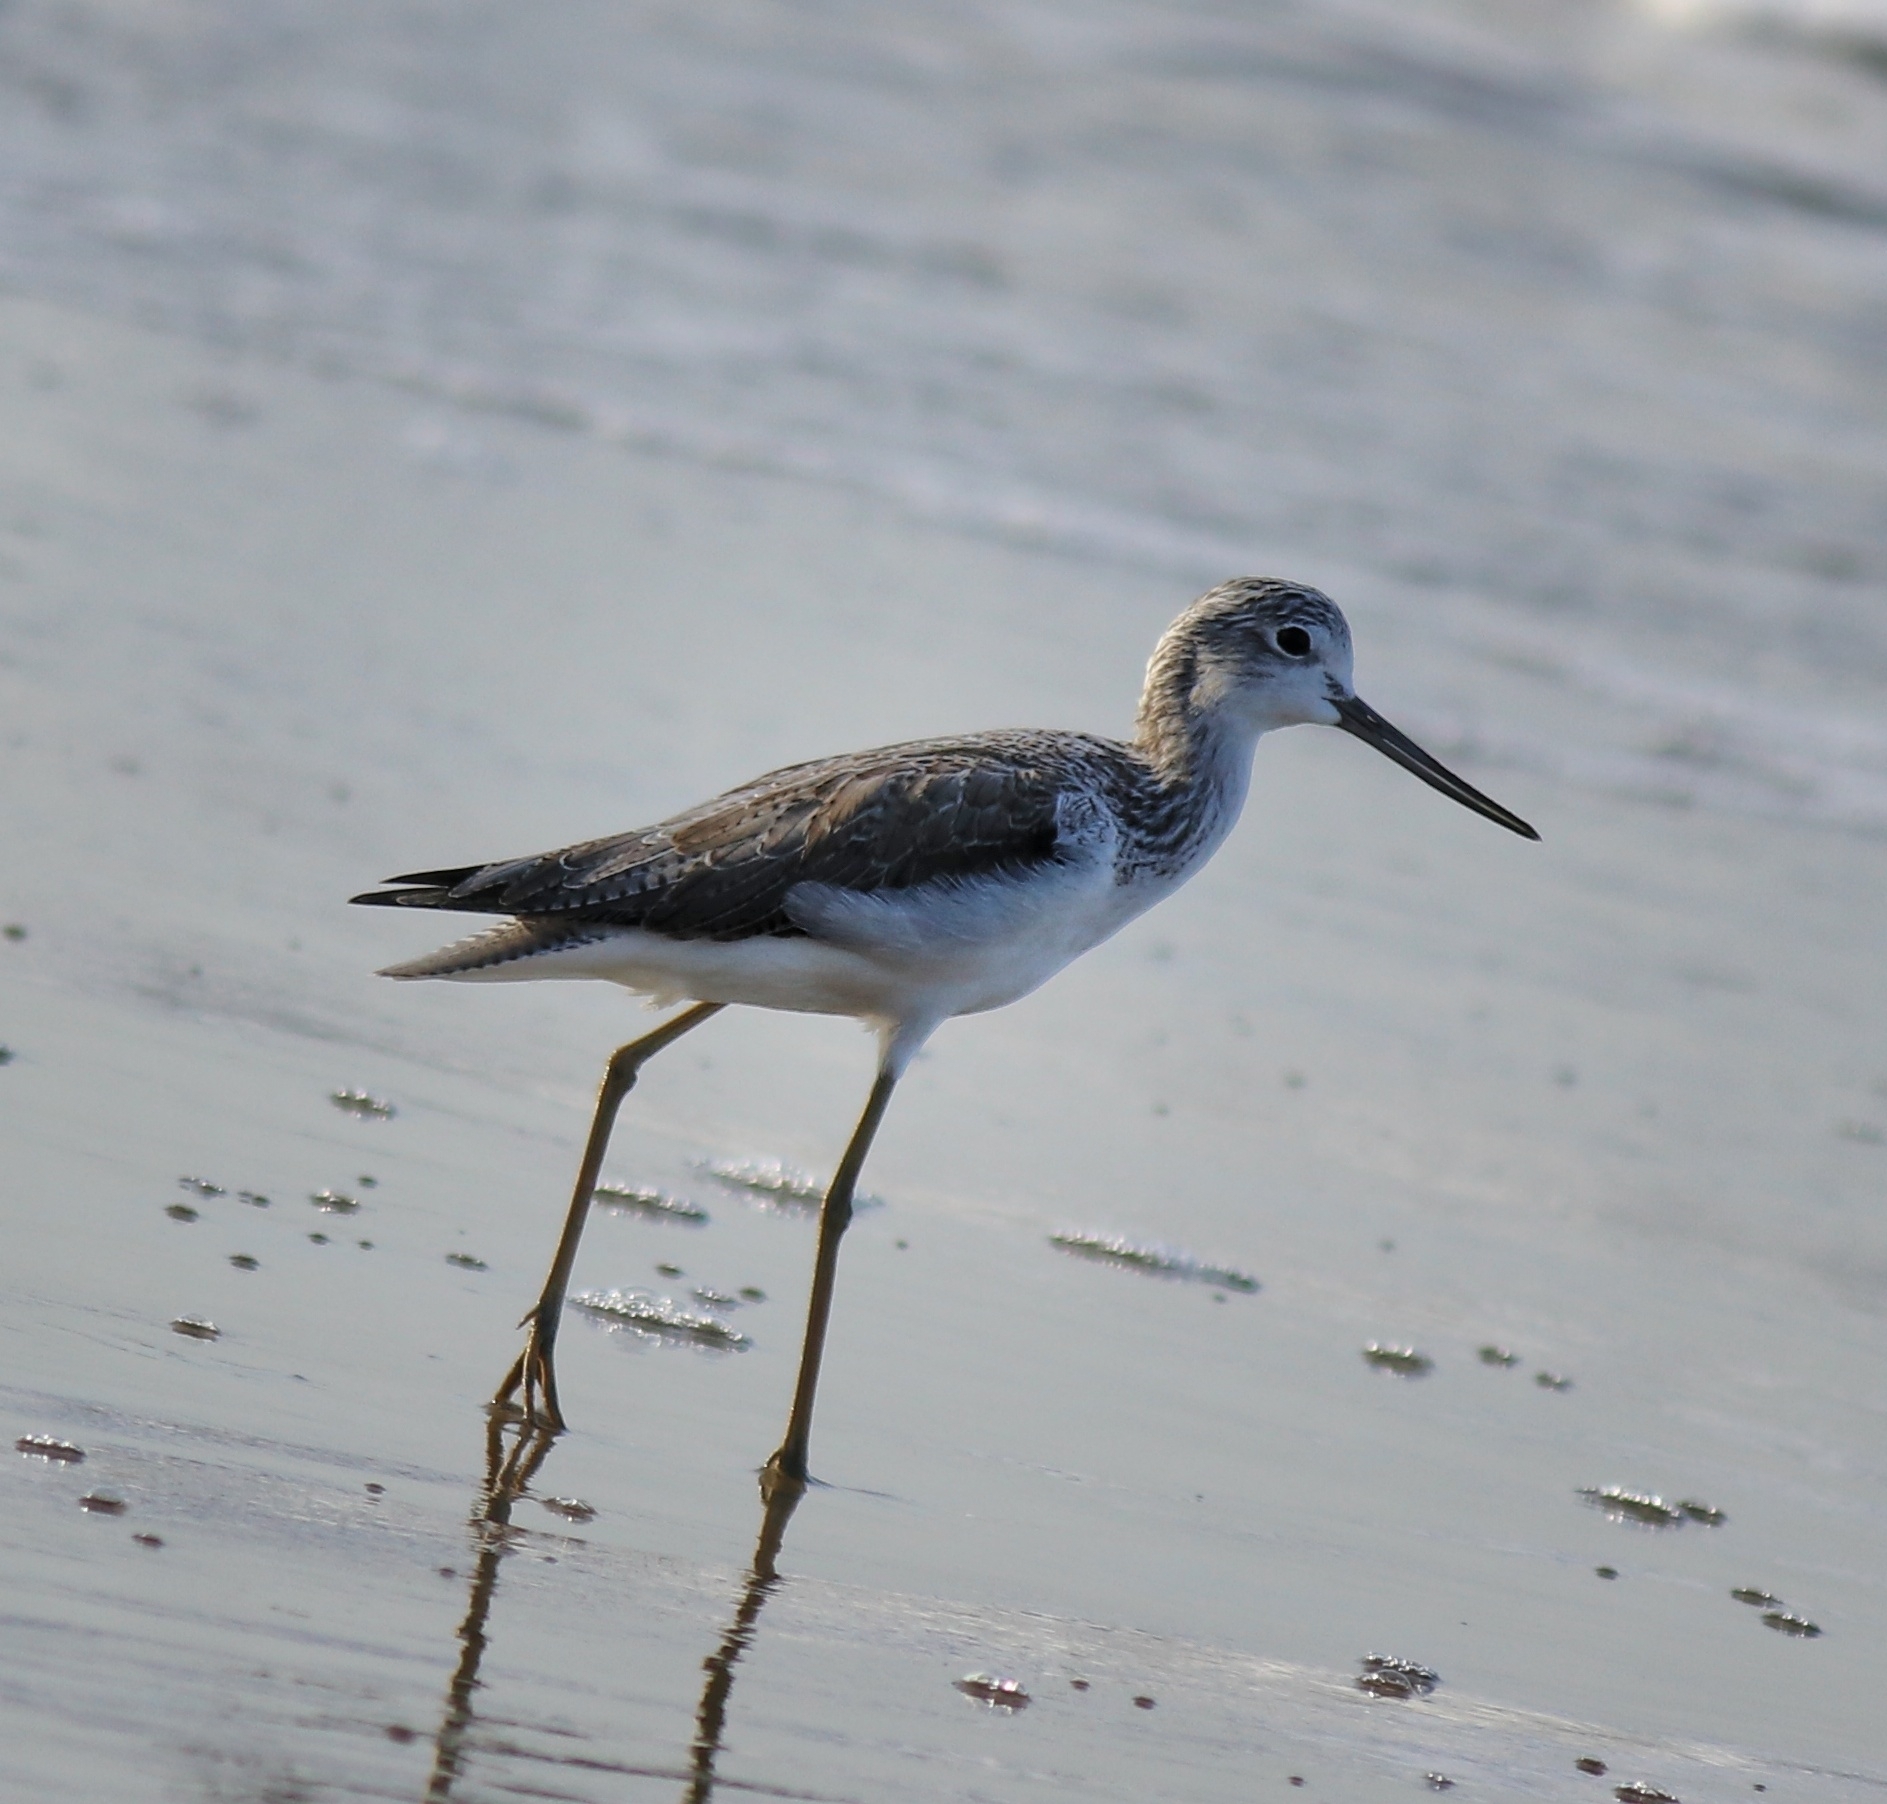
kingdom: Animalia
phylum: Chordata
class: Aves
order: Charadriiformes
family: Scolopacidae
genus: Tringa
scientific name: Tringa nebularia
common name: Common greenshank
